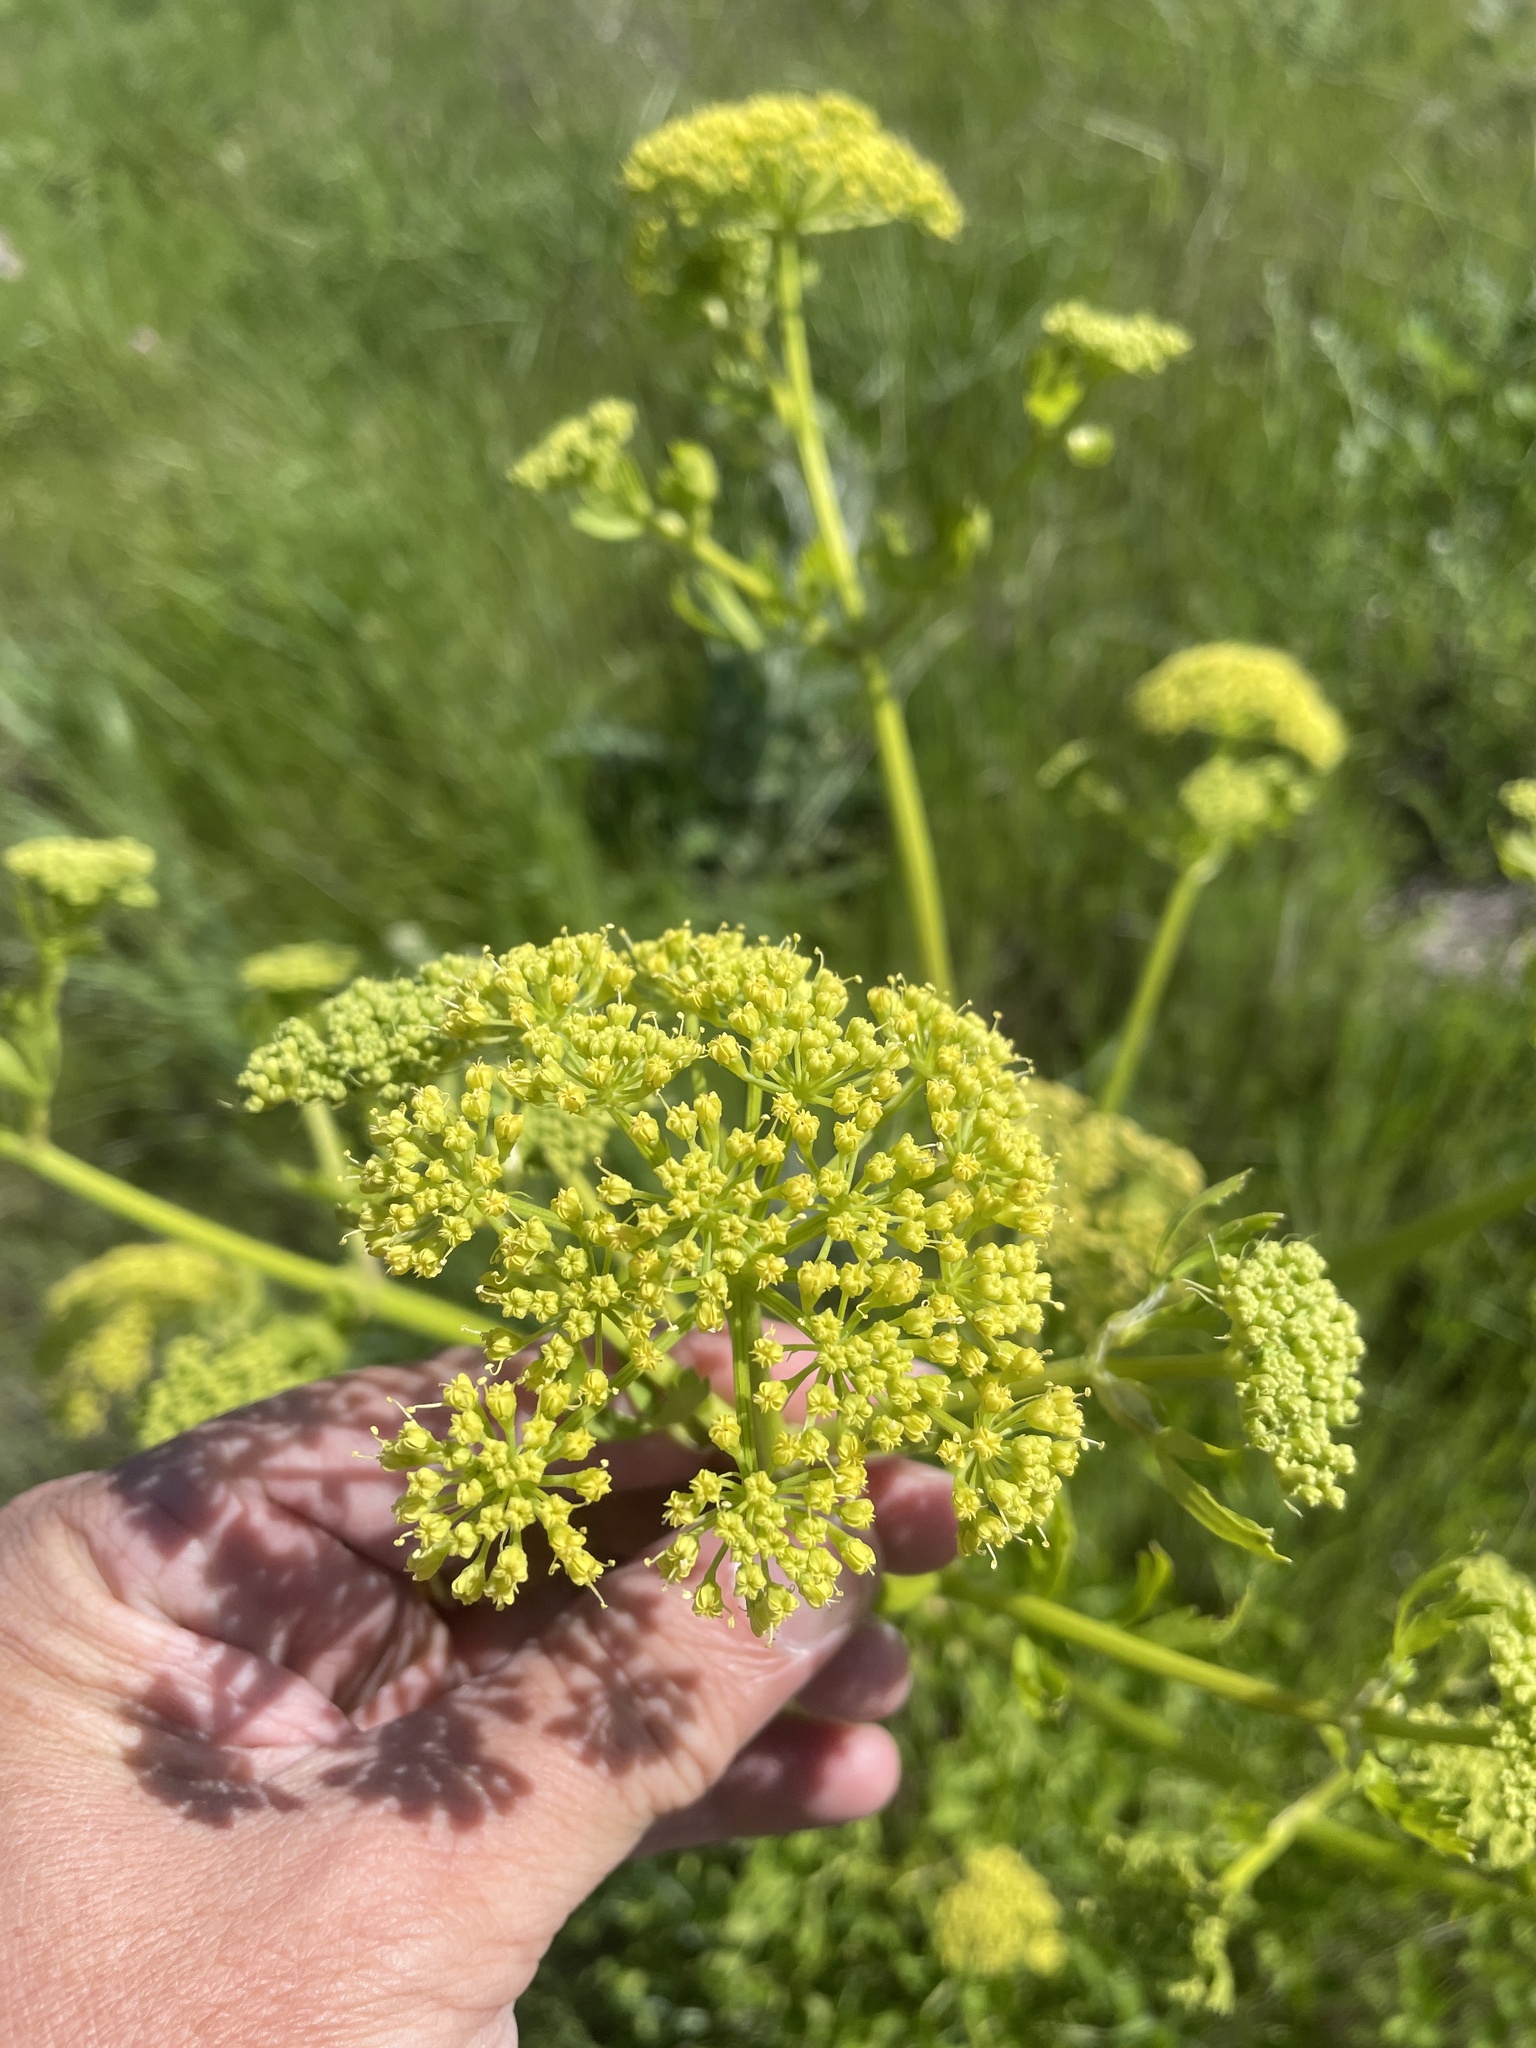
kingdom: Plantae
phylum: Tracheophyta
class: Magnoliopsida
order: Apiales
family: Apiaceae
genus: Polytaenia
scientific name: Polytaenia texana
